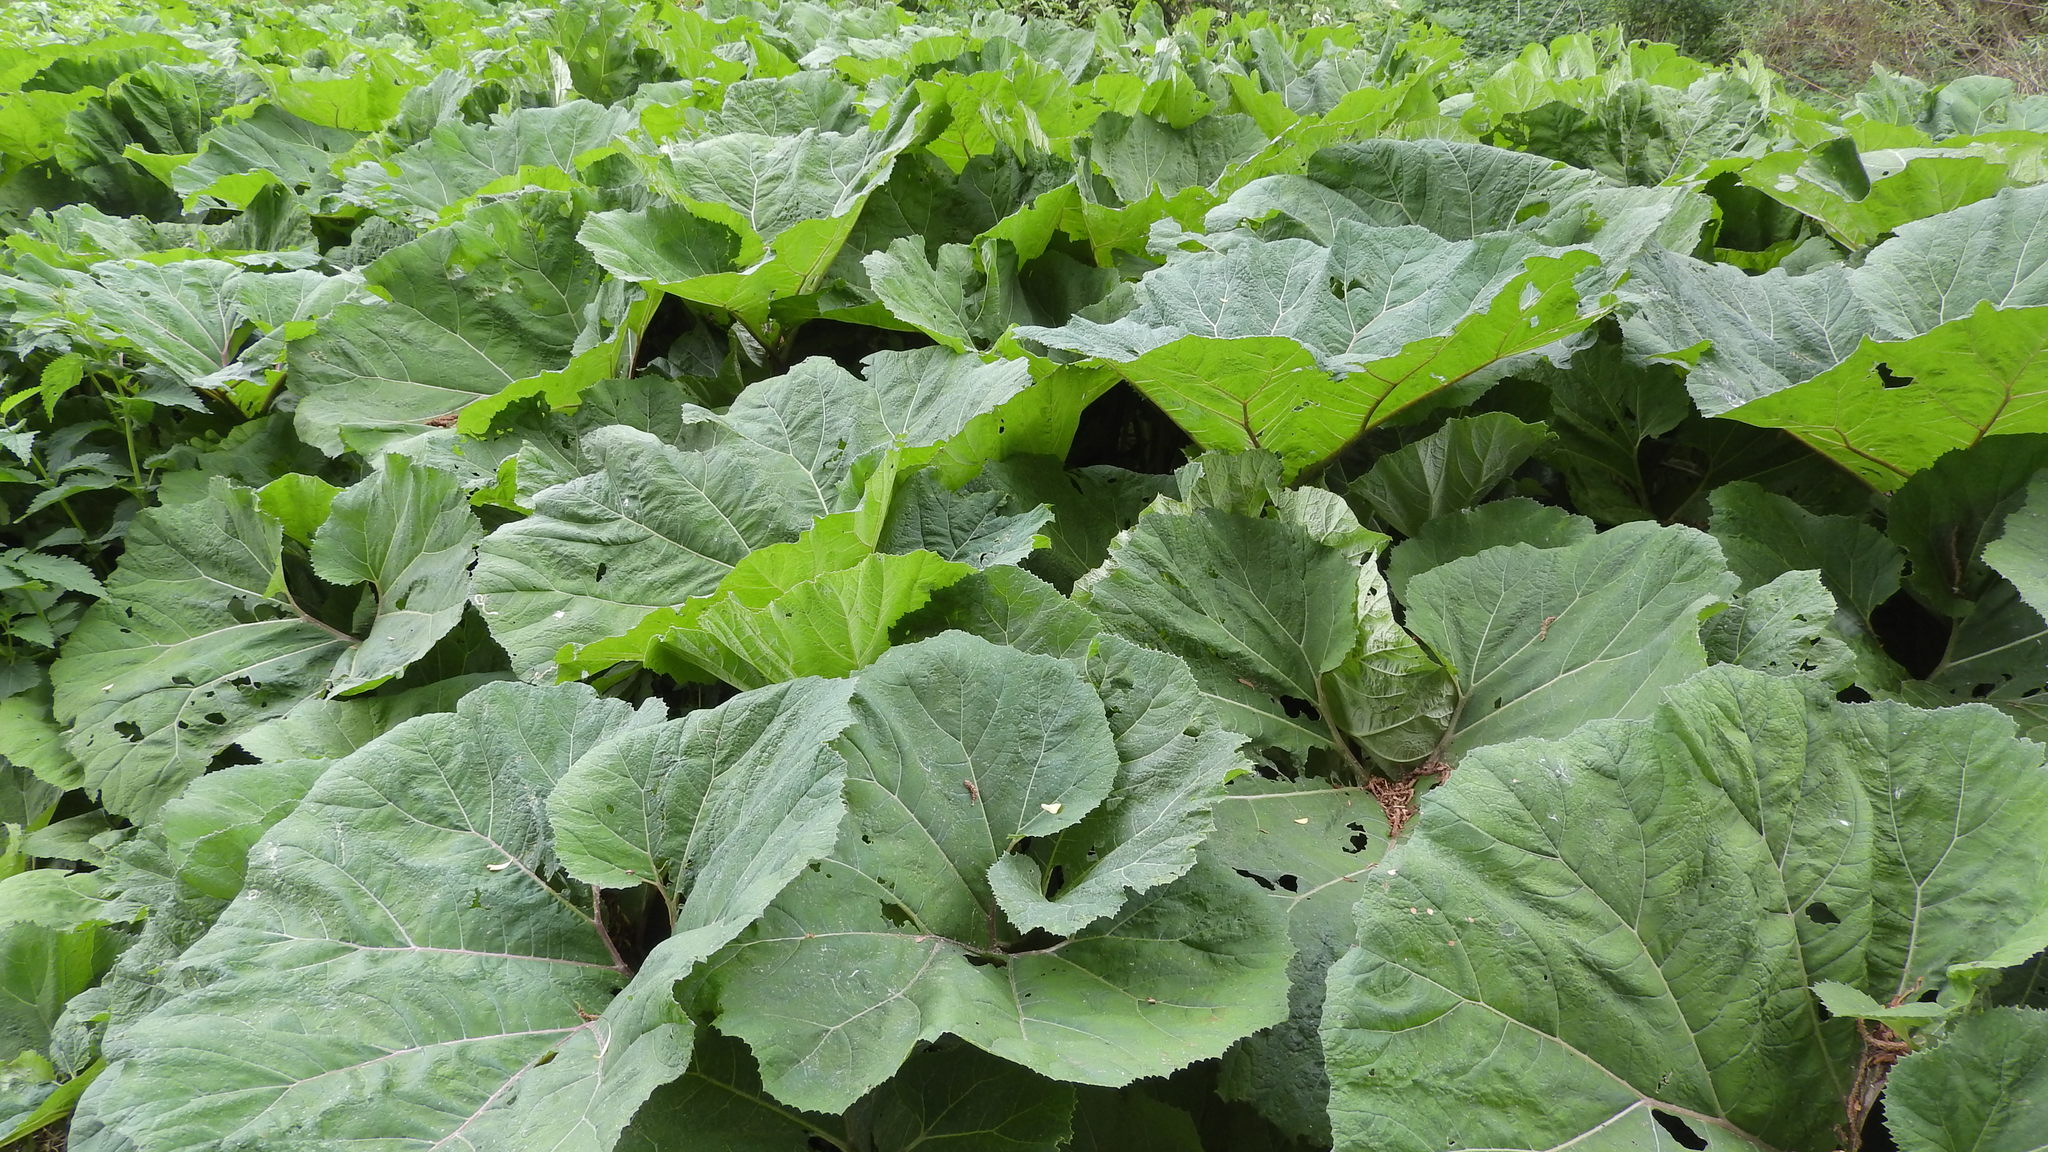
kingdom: Plantae
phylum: Tracheophyta
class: Magnoliopsida
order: Asterales
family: Asteraceae
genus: Petasites
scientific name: Petasites hybridus
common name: Butterbur
